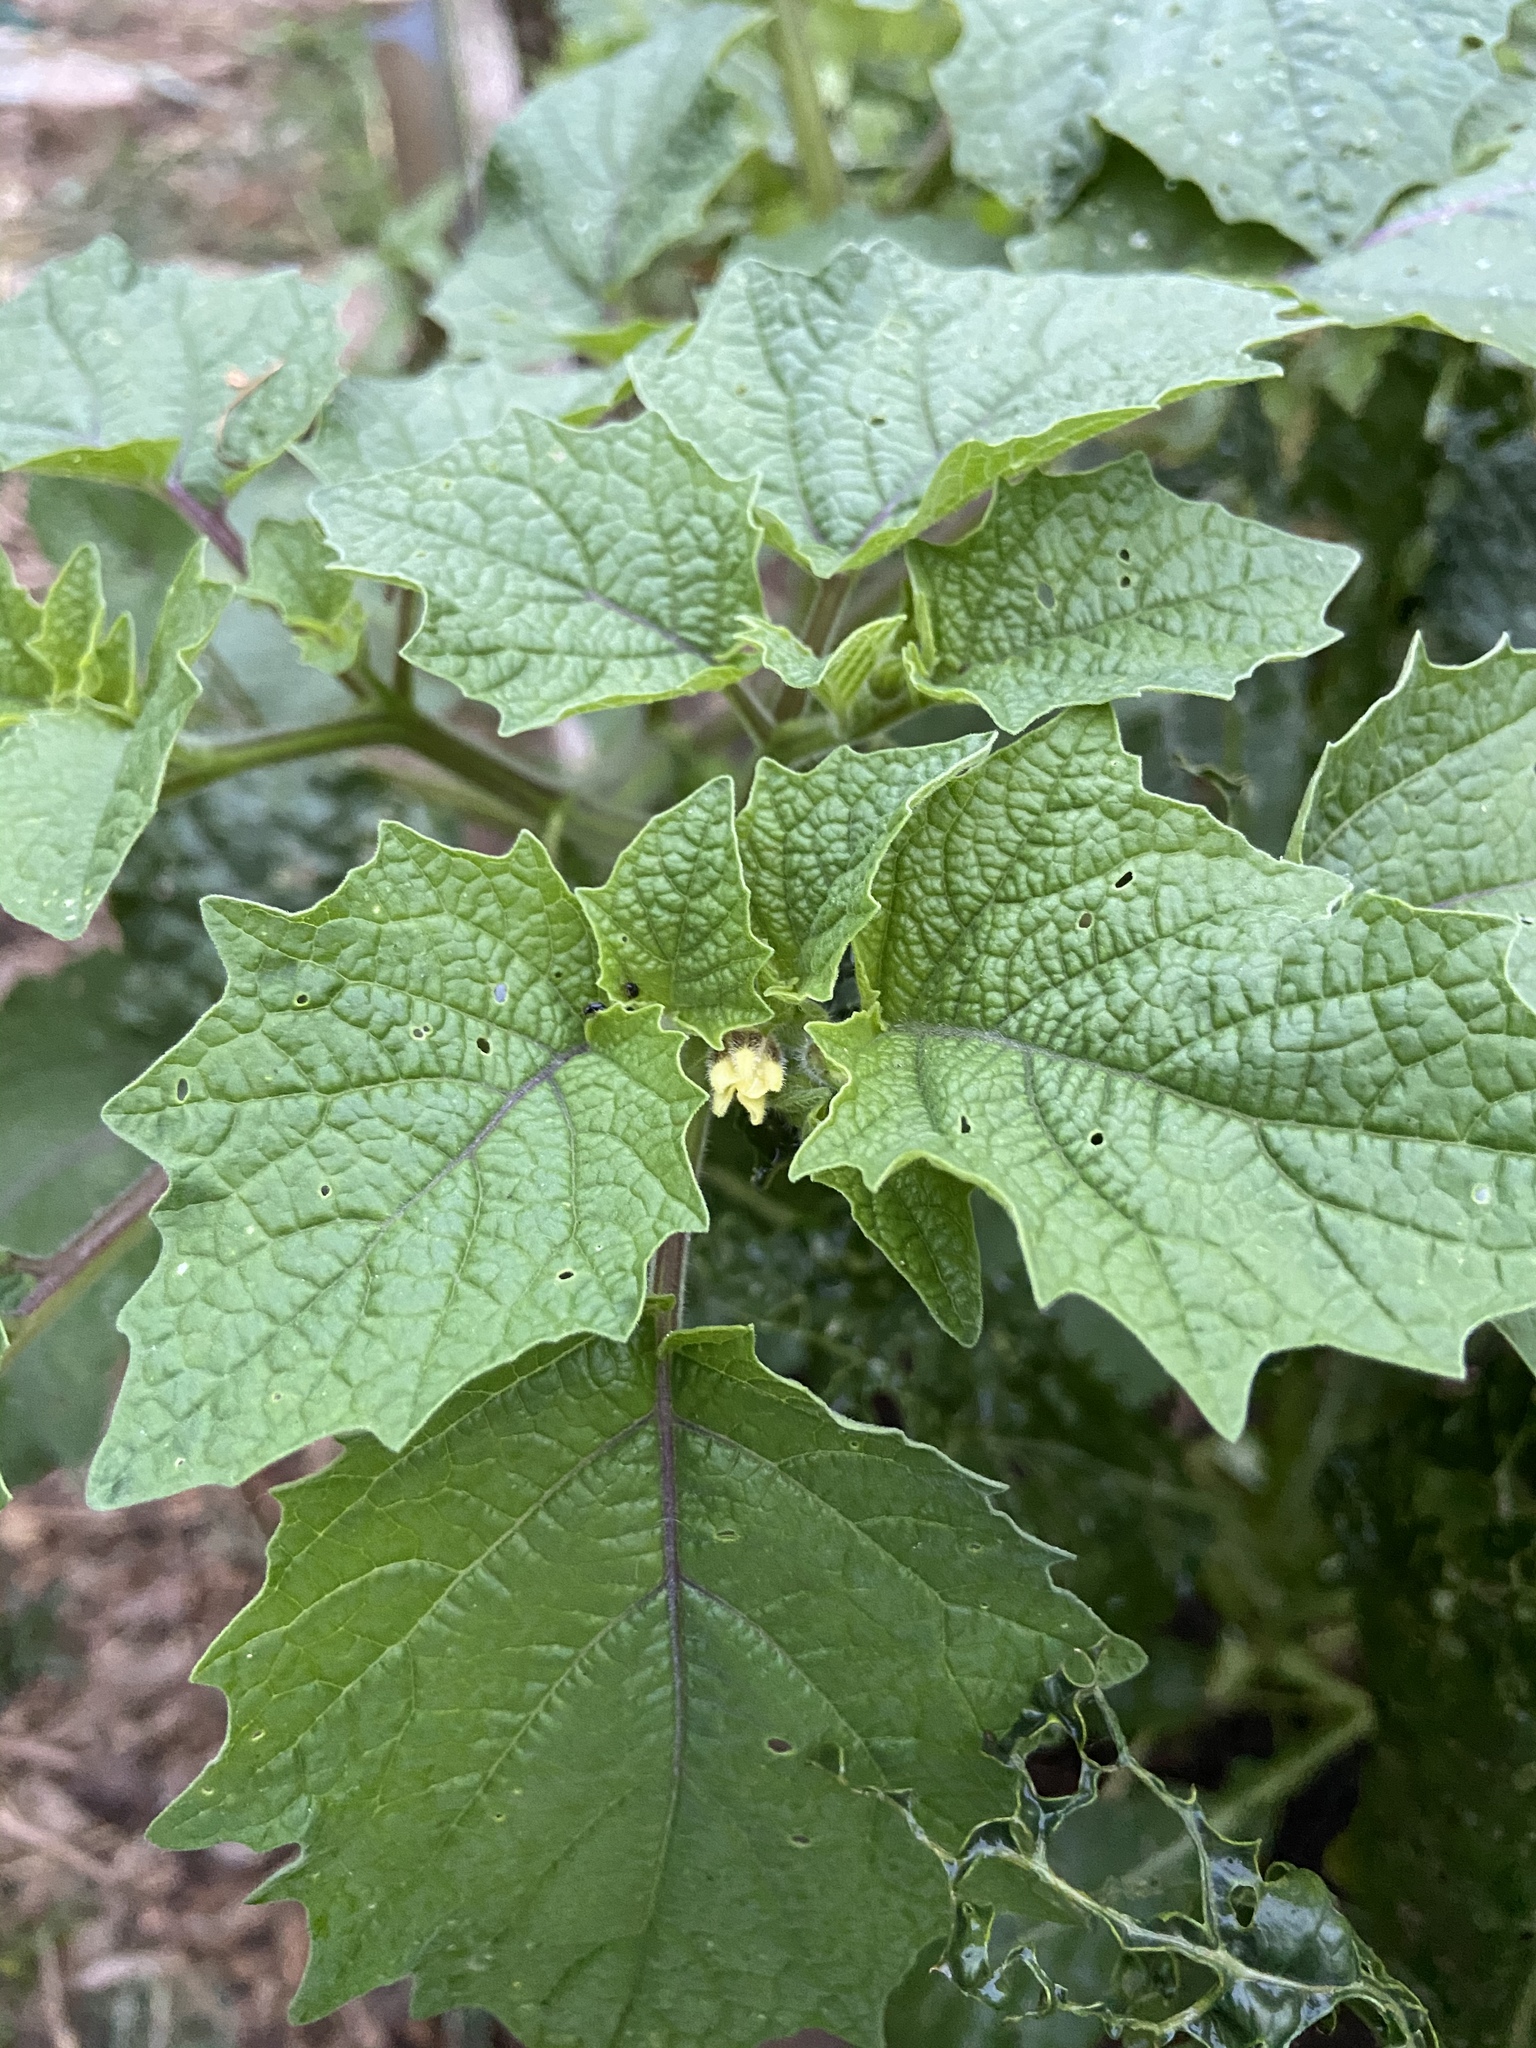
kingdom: Plantae
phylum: Tracheophyta
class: Magnoliopsida
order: Solanales
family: Solanaceae
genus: Physalis
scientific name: Physalis grisea
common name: Dwarf cape-gooseberry
